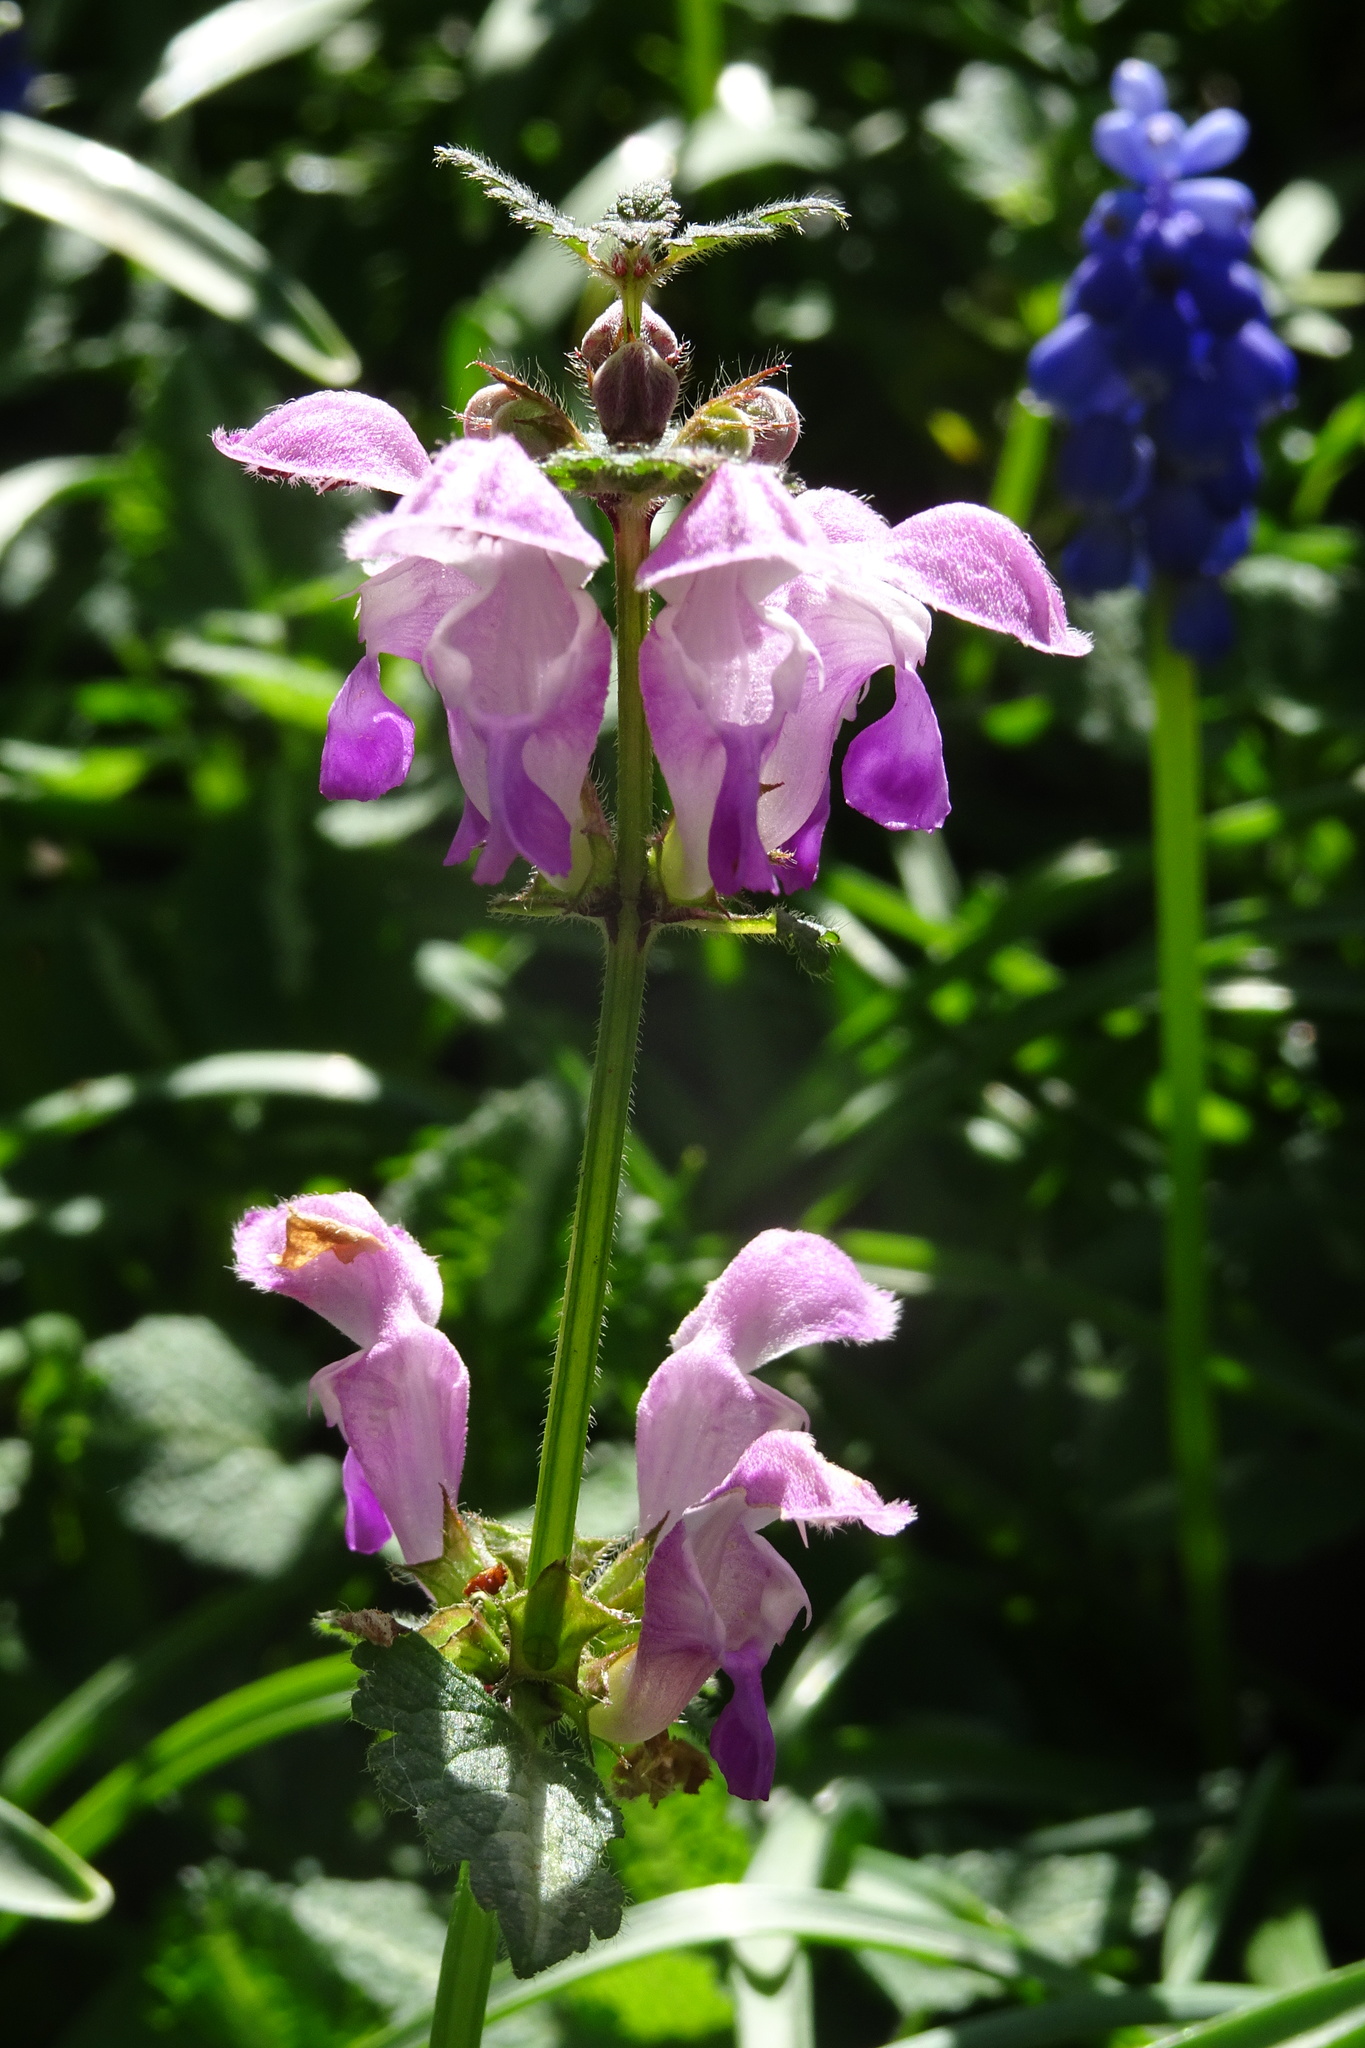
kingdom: Plantae
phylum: Tracheophyta
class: Magnoliopsida
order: Lamiales
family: Lamiaceae
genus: Lamium
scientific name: Lamium maculatum
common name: Spotted dead-nettle
